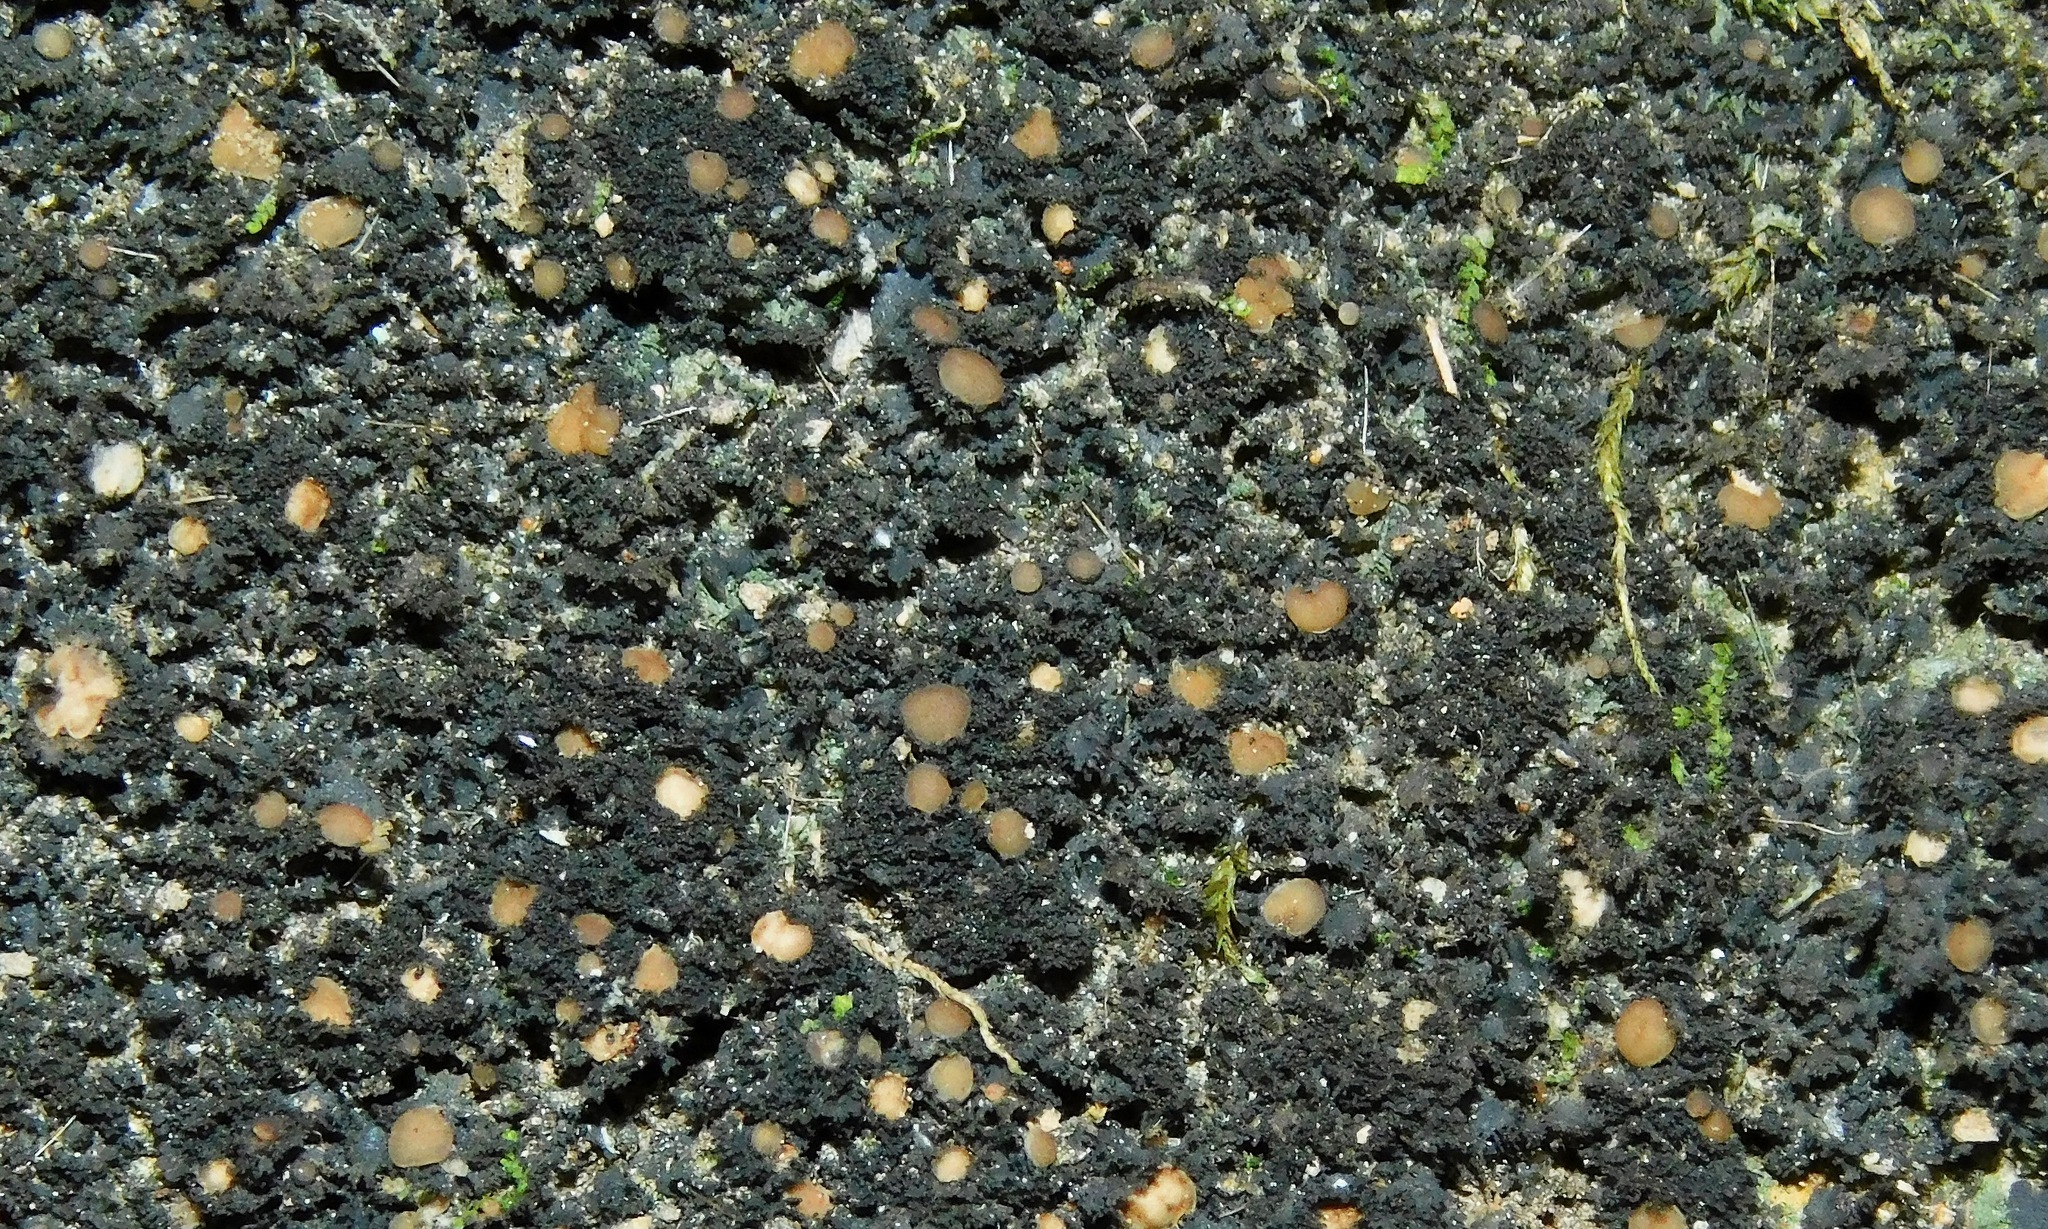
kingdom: Fungi
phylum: Ascomycota
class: Lecanoromycetes
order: Peltigerales
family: Massalongiaceae
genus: Massalongia
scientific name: Massalongia microphylliza
